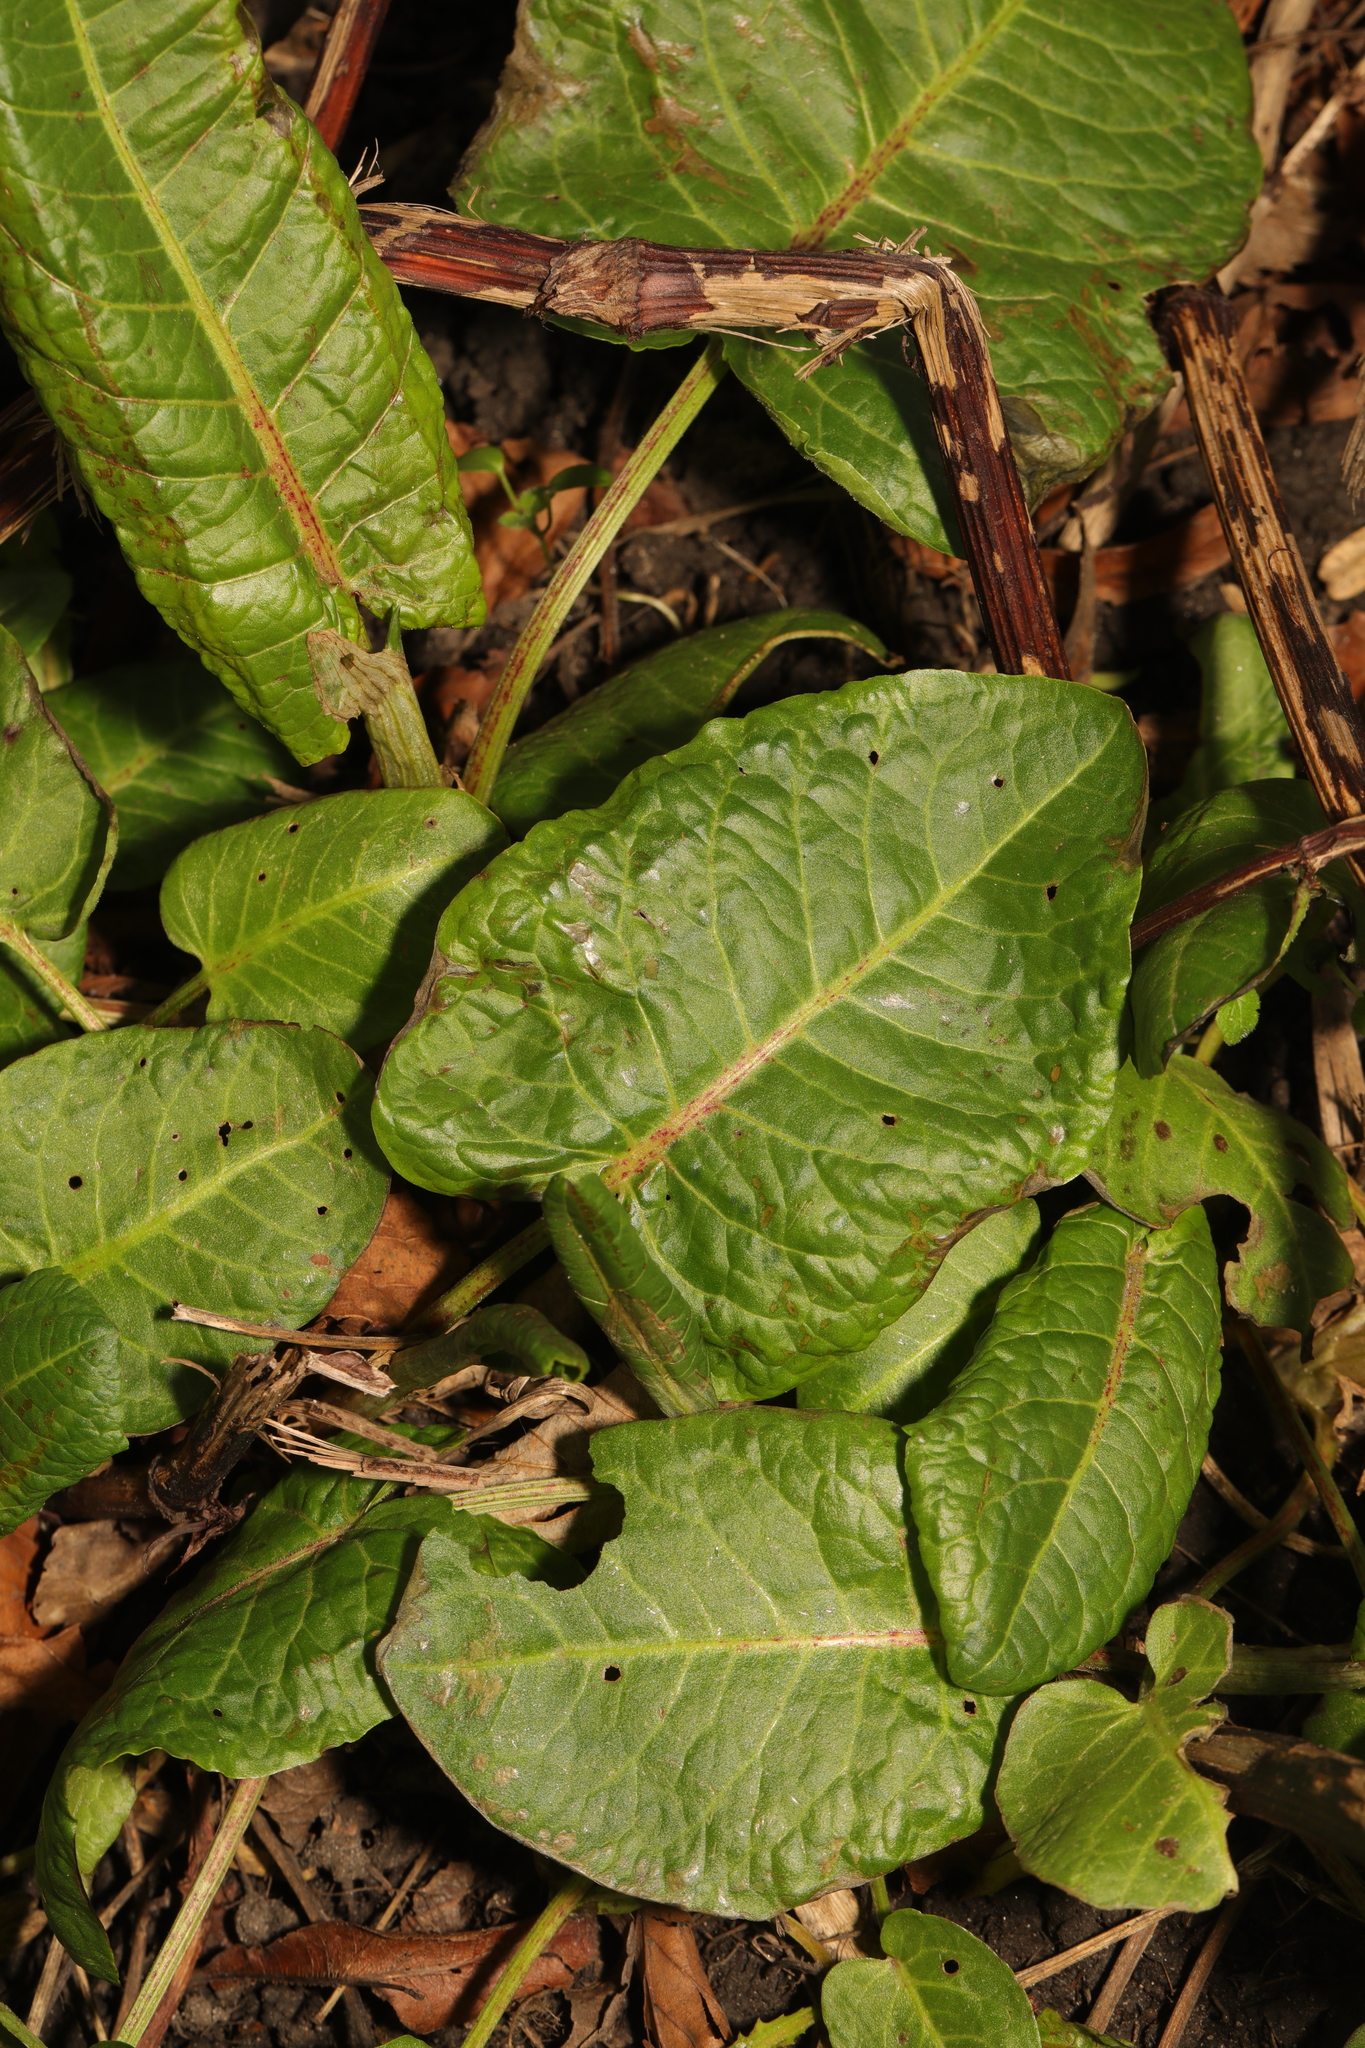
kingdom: Plantae
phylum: Tracheophyta
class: Magnoliopsida
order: Caryophyllales
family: Polygonaceae
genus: Rumex
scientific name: Rumex obtusifolius
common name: Bitter dock
